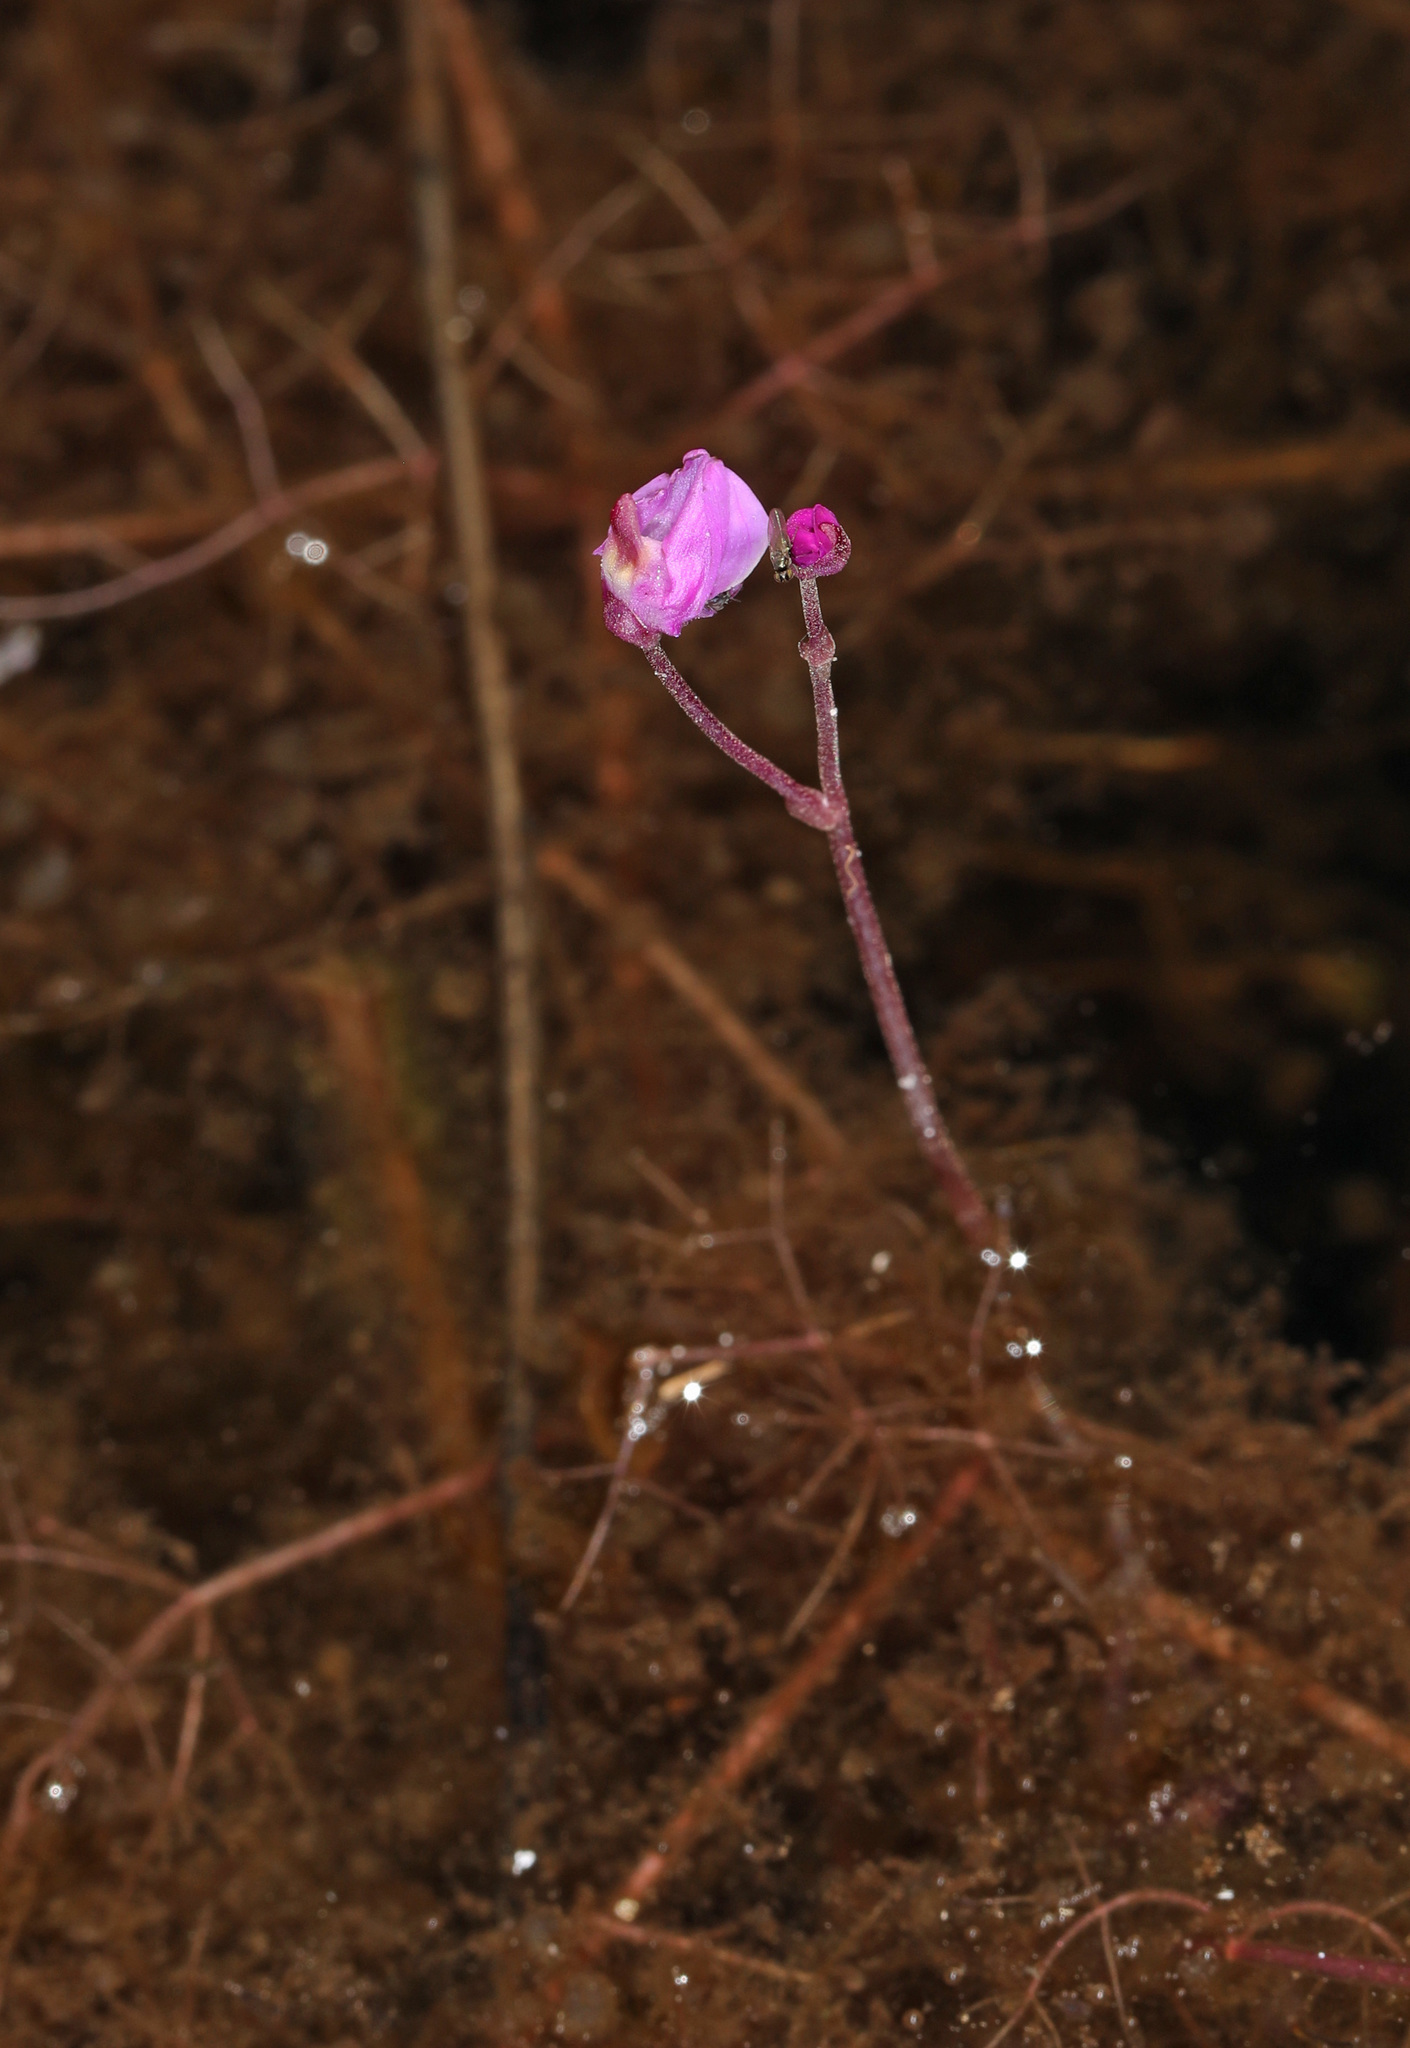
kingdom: Plantae
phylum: Tracheophyta
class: Magnoliopsida
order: Lamiales
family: Lentibulariaceae
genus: Utricularia
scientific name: Utricularia purpurea
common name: Eastern purple bladderwort
